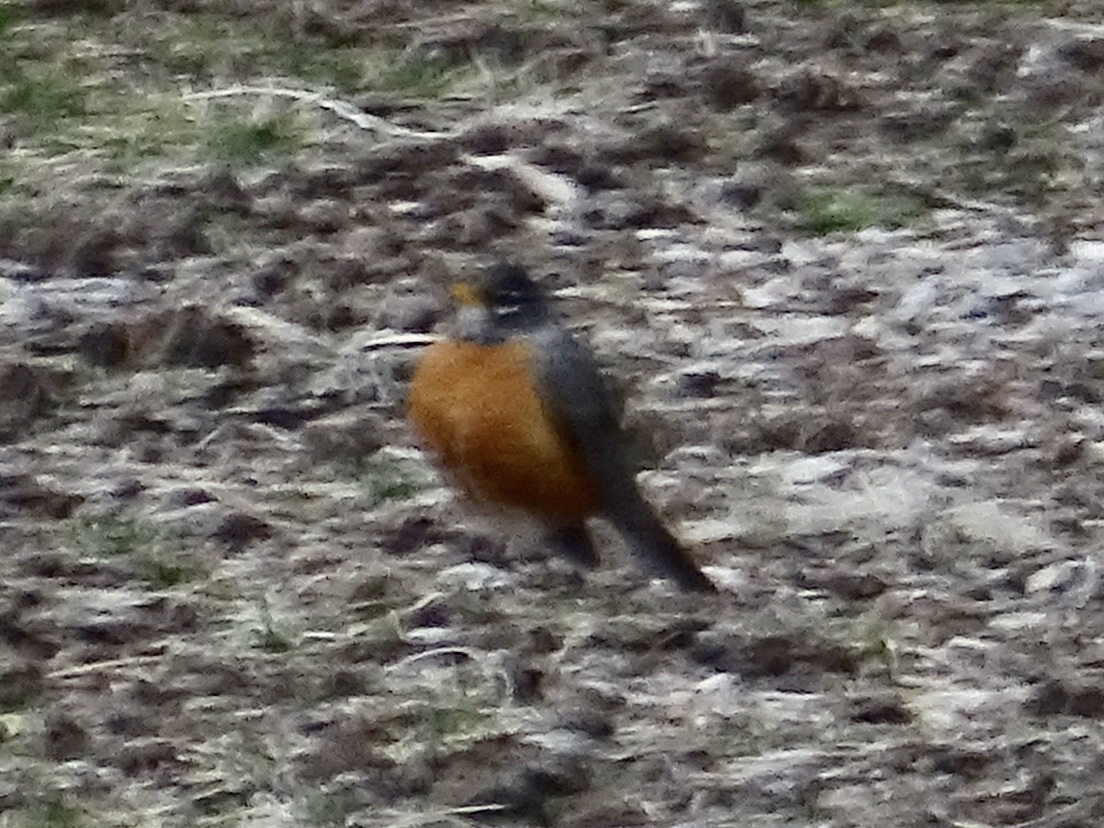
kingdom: Animalia
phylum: Chordata
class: Aves
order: Passeriformes
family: Turdidae
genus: Turdus
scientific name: Turdus migratorius
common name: American robin
